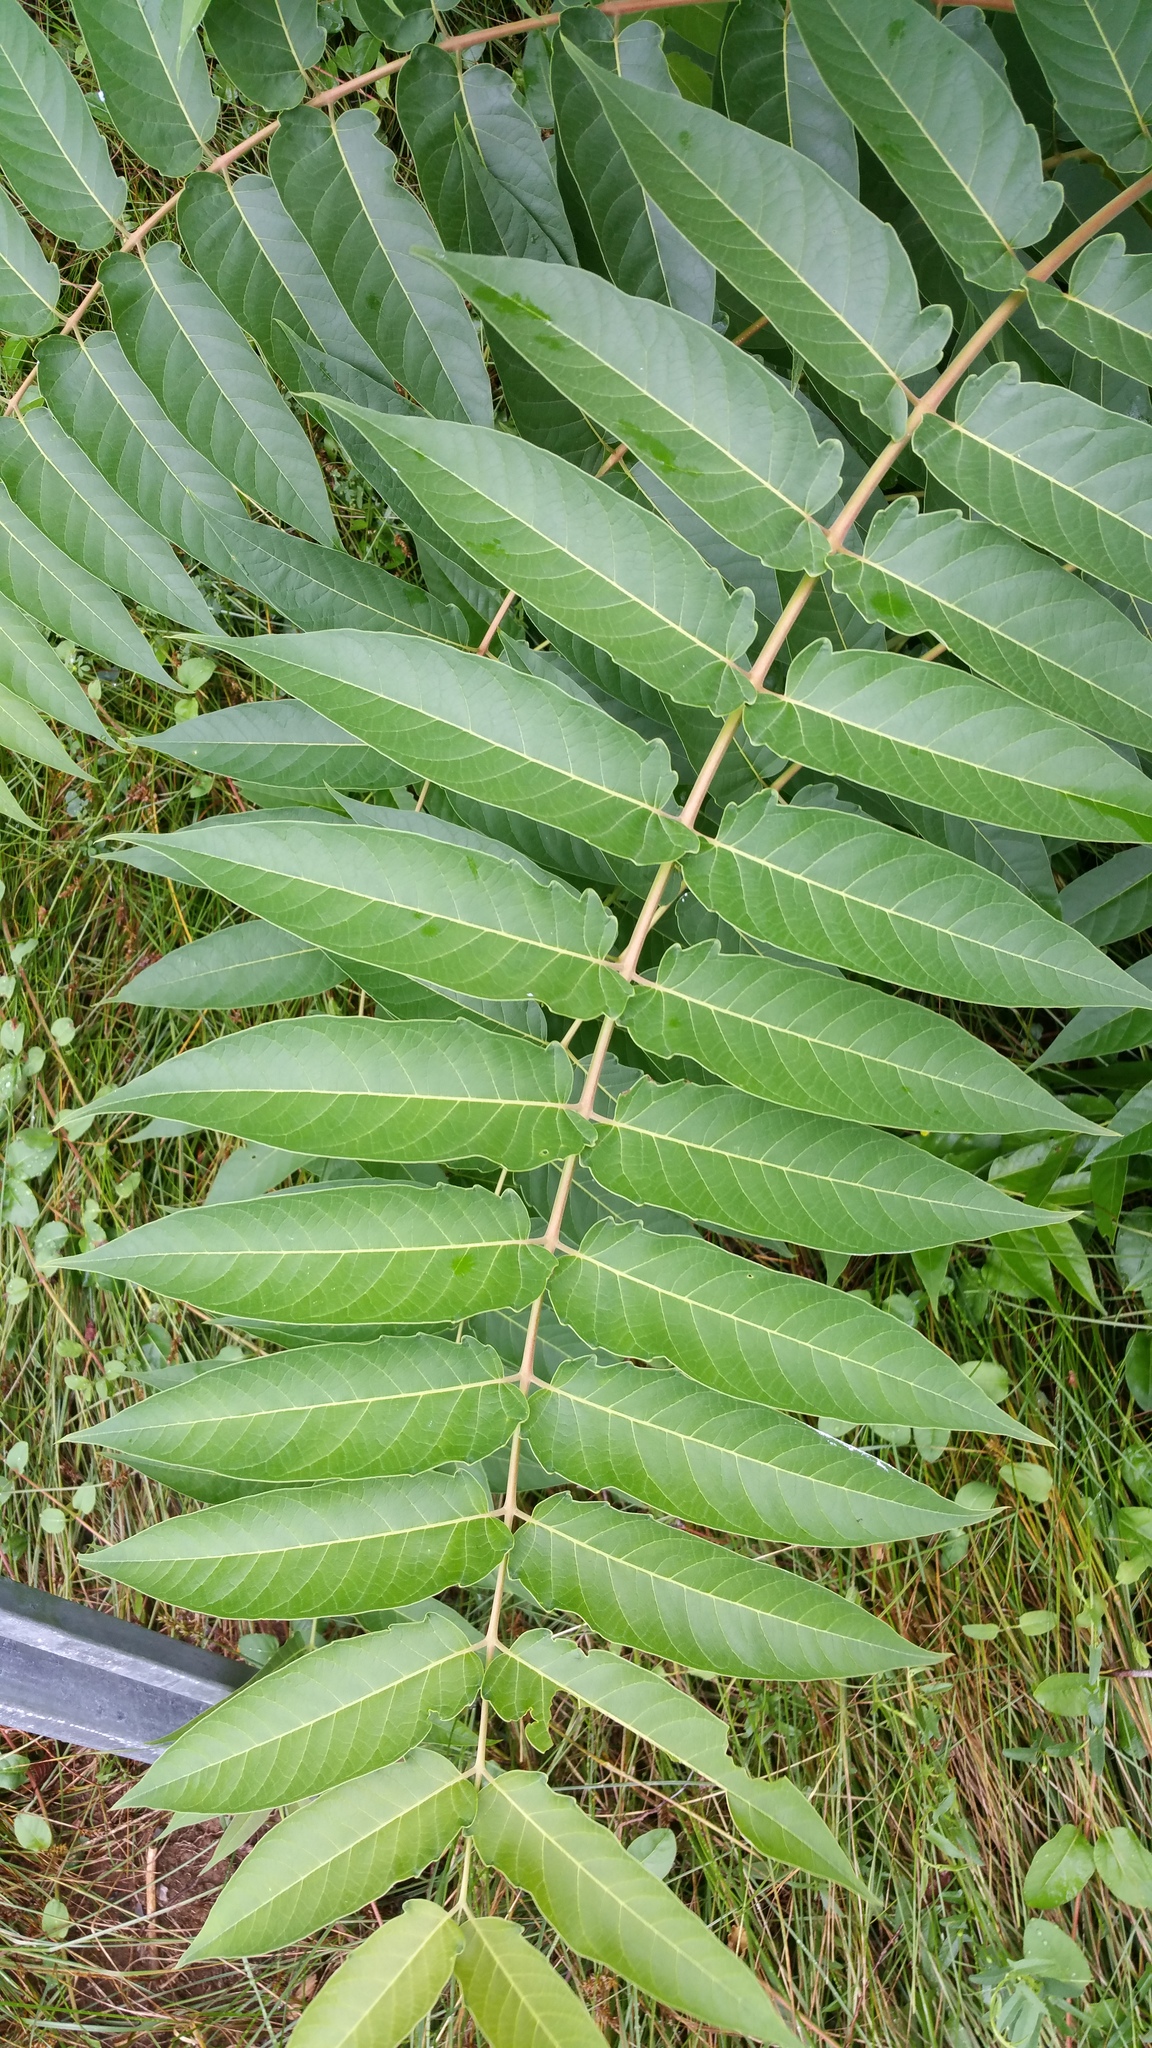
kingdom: Plantae
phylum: Tracheophyta
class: Magnoliopsida
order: Sapindales
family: Simaroubaceae
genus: Ailanthus
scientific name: Ailanthus altissima
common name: Tree-of-heaven
